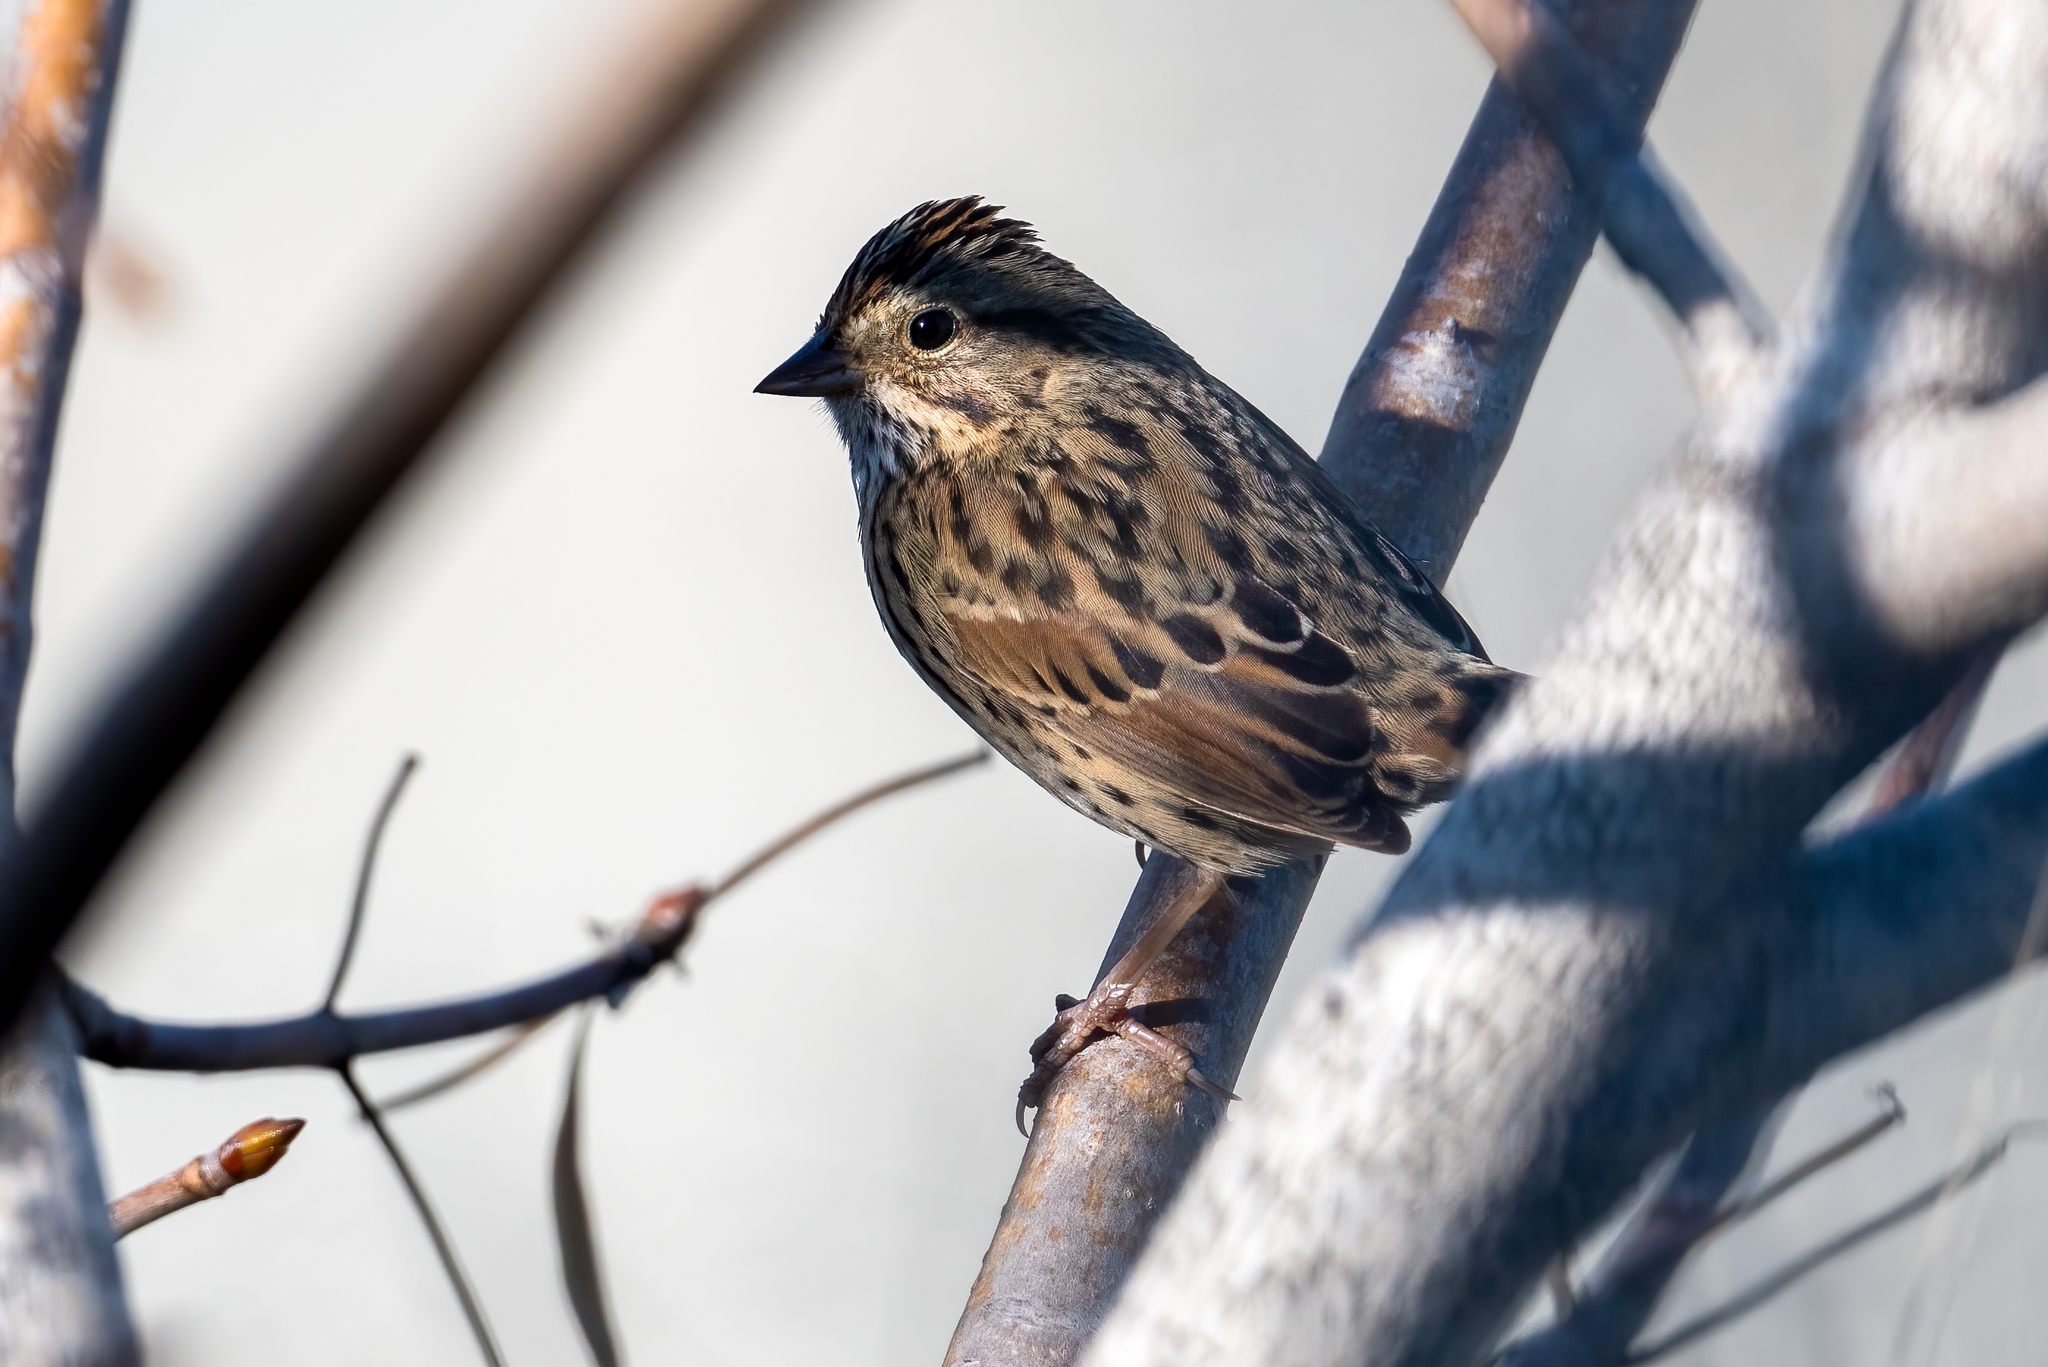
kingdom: Animalia
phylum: Chordata
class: Aves
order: Passeriformes
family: Passerellidae
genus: Melospiza
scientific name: Melospiza lincolnii
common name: Lincoln's sparrow
